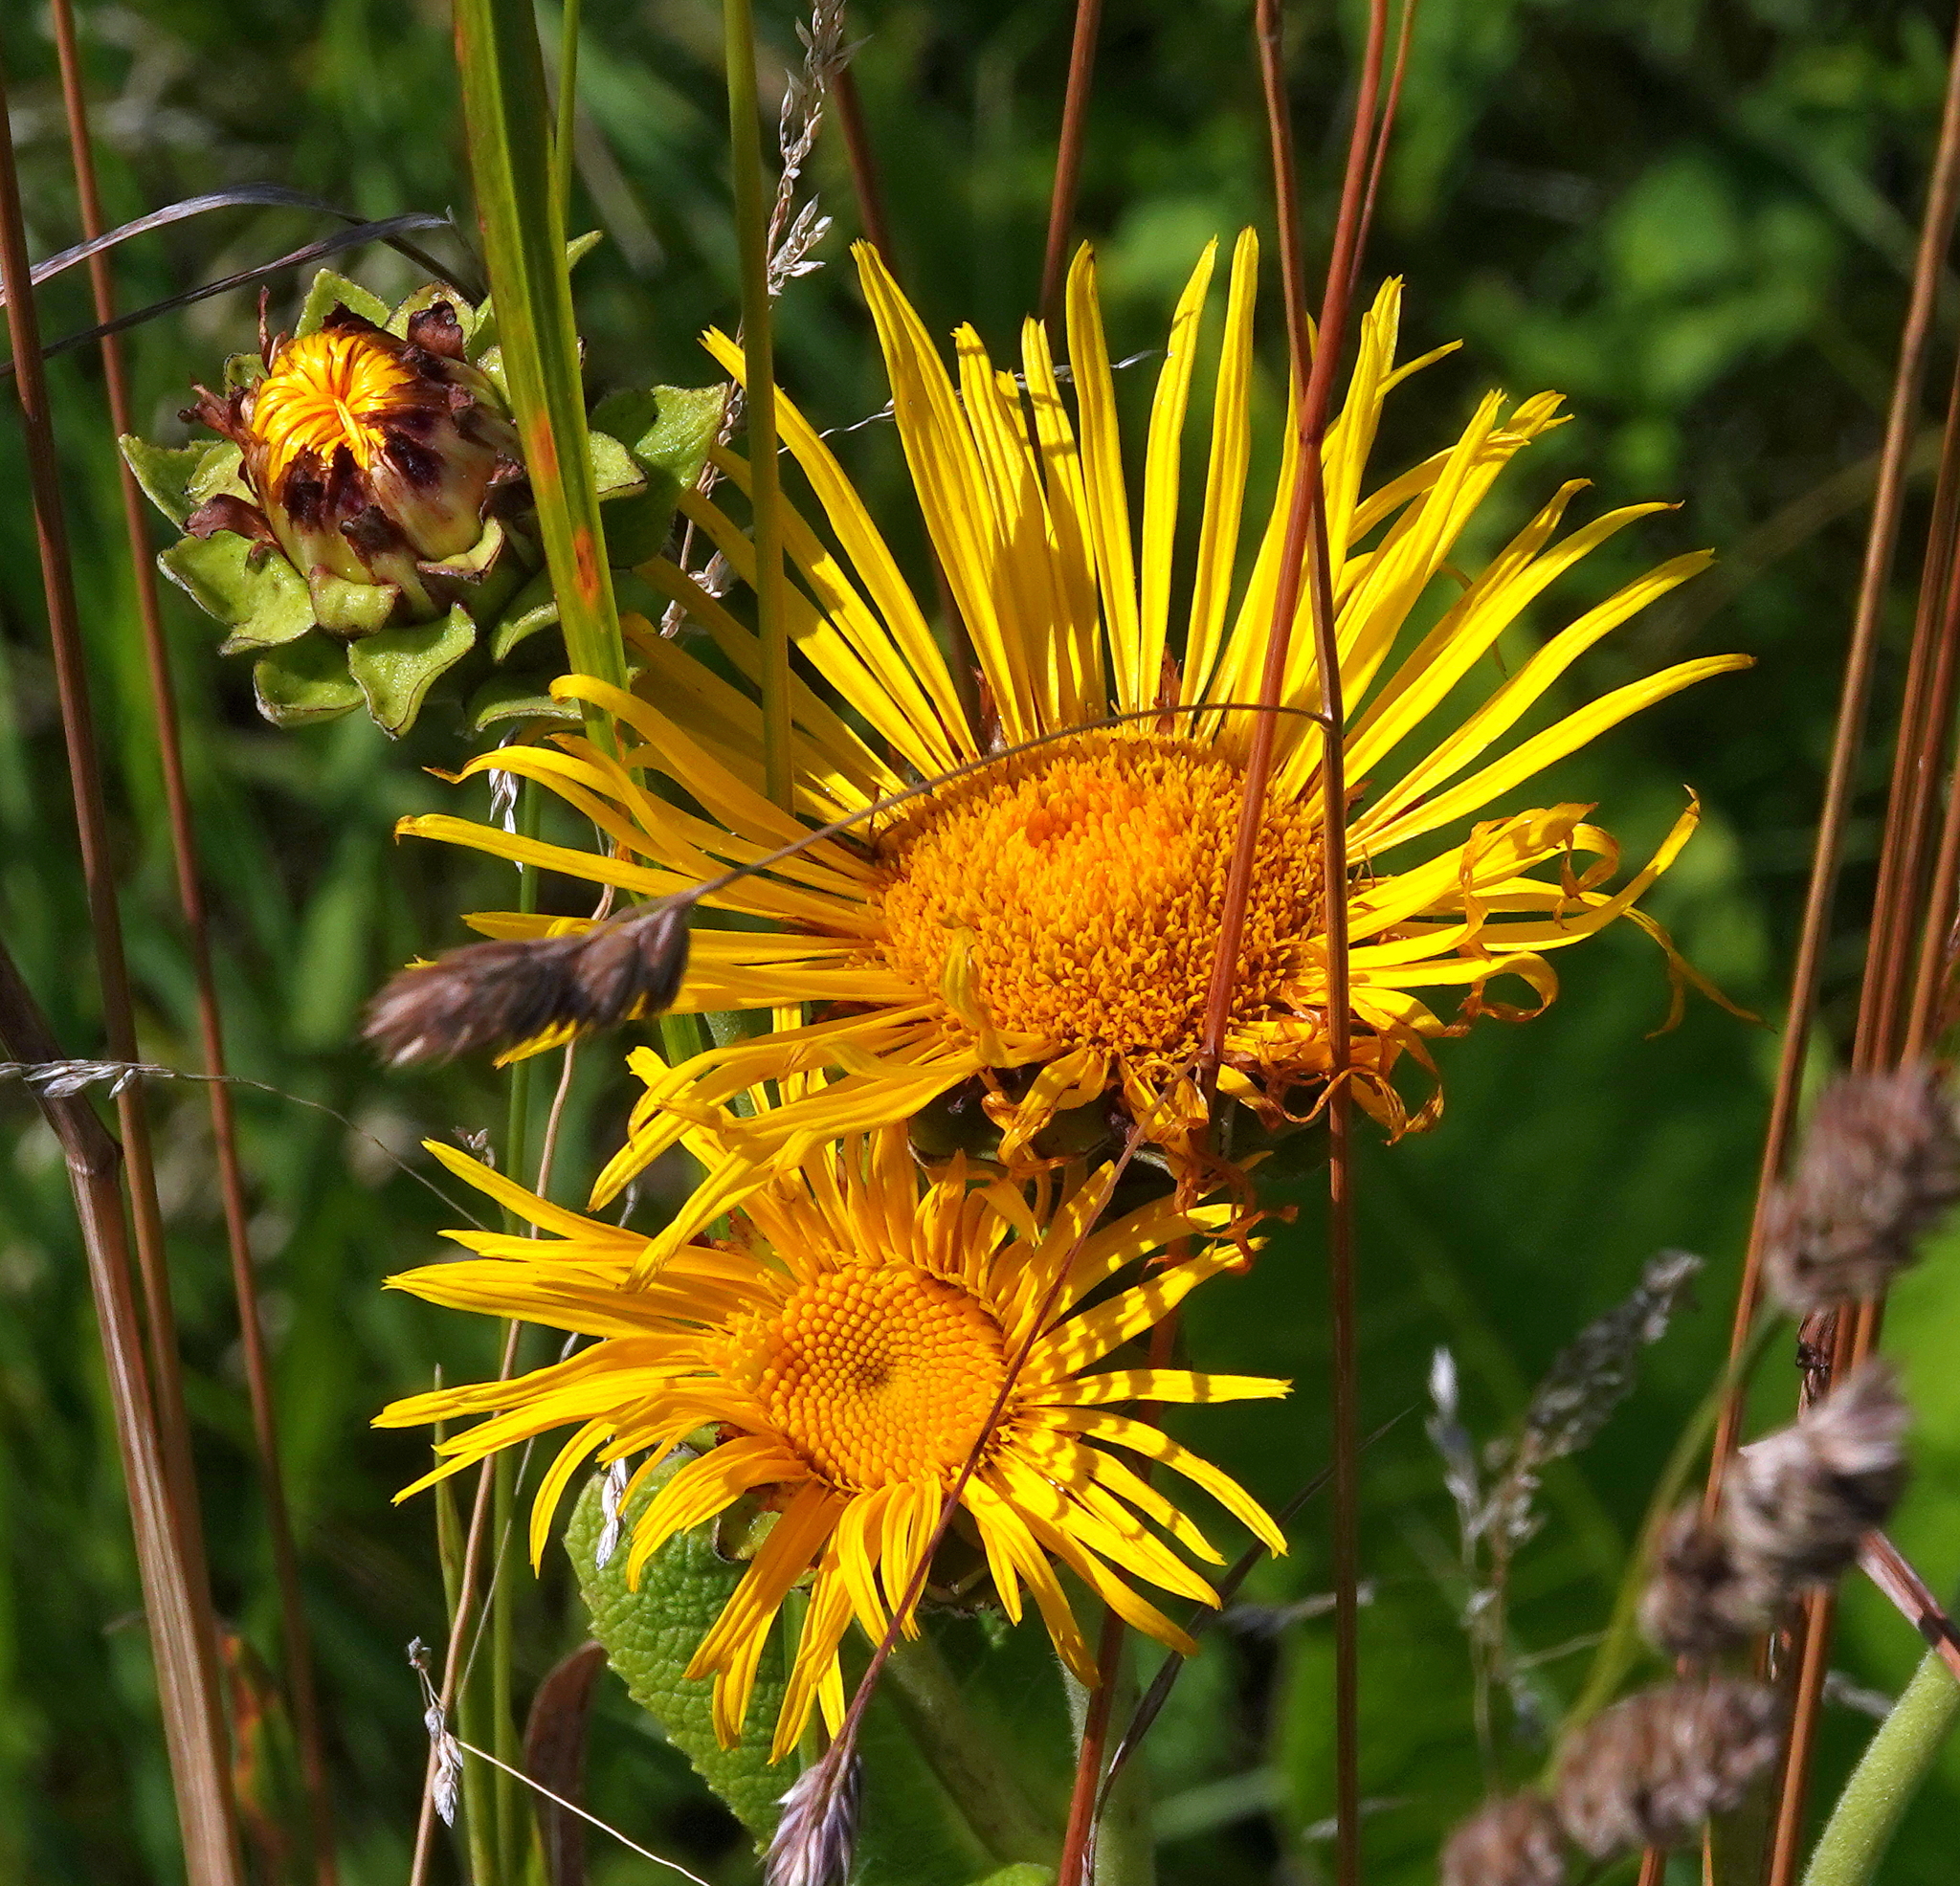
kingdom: Plantae
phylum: Tracheophyta
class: Magnoliopsida
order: Asterales
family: Asteraceae
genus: Inula
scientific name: Inula helenium
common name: Elecampane
